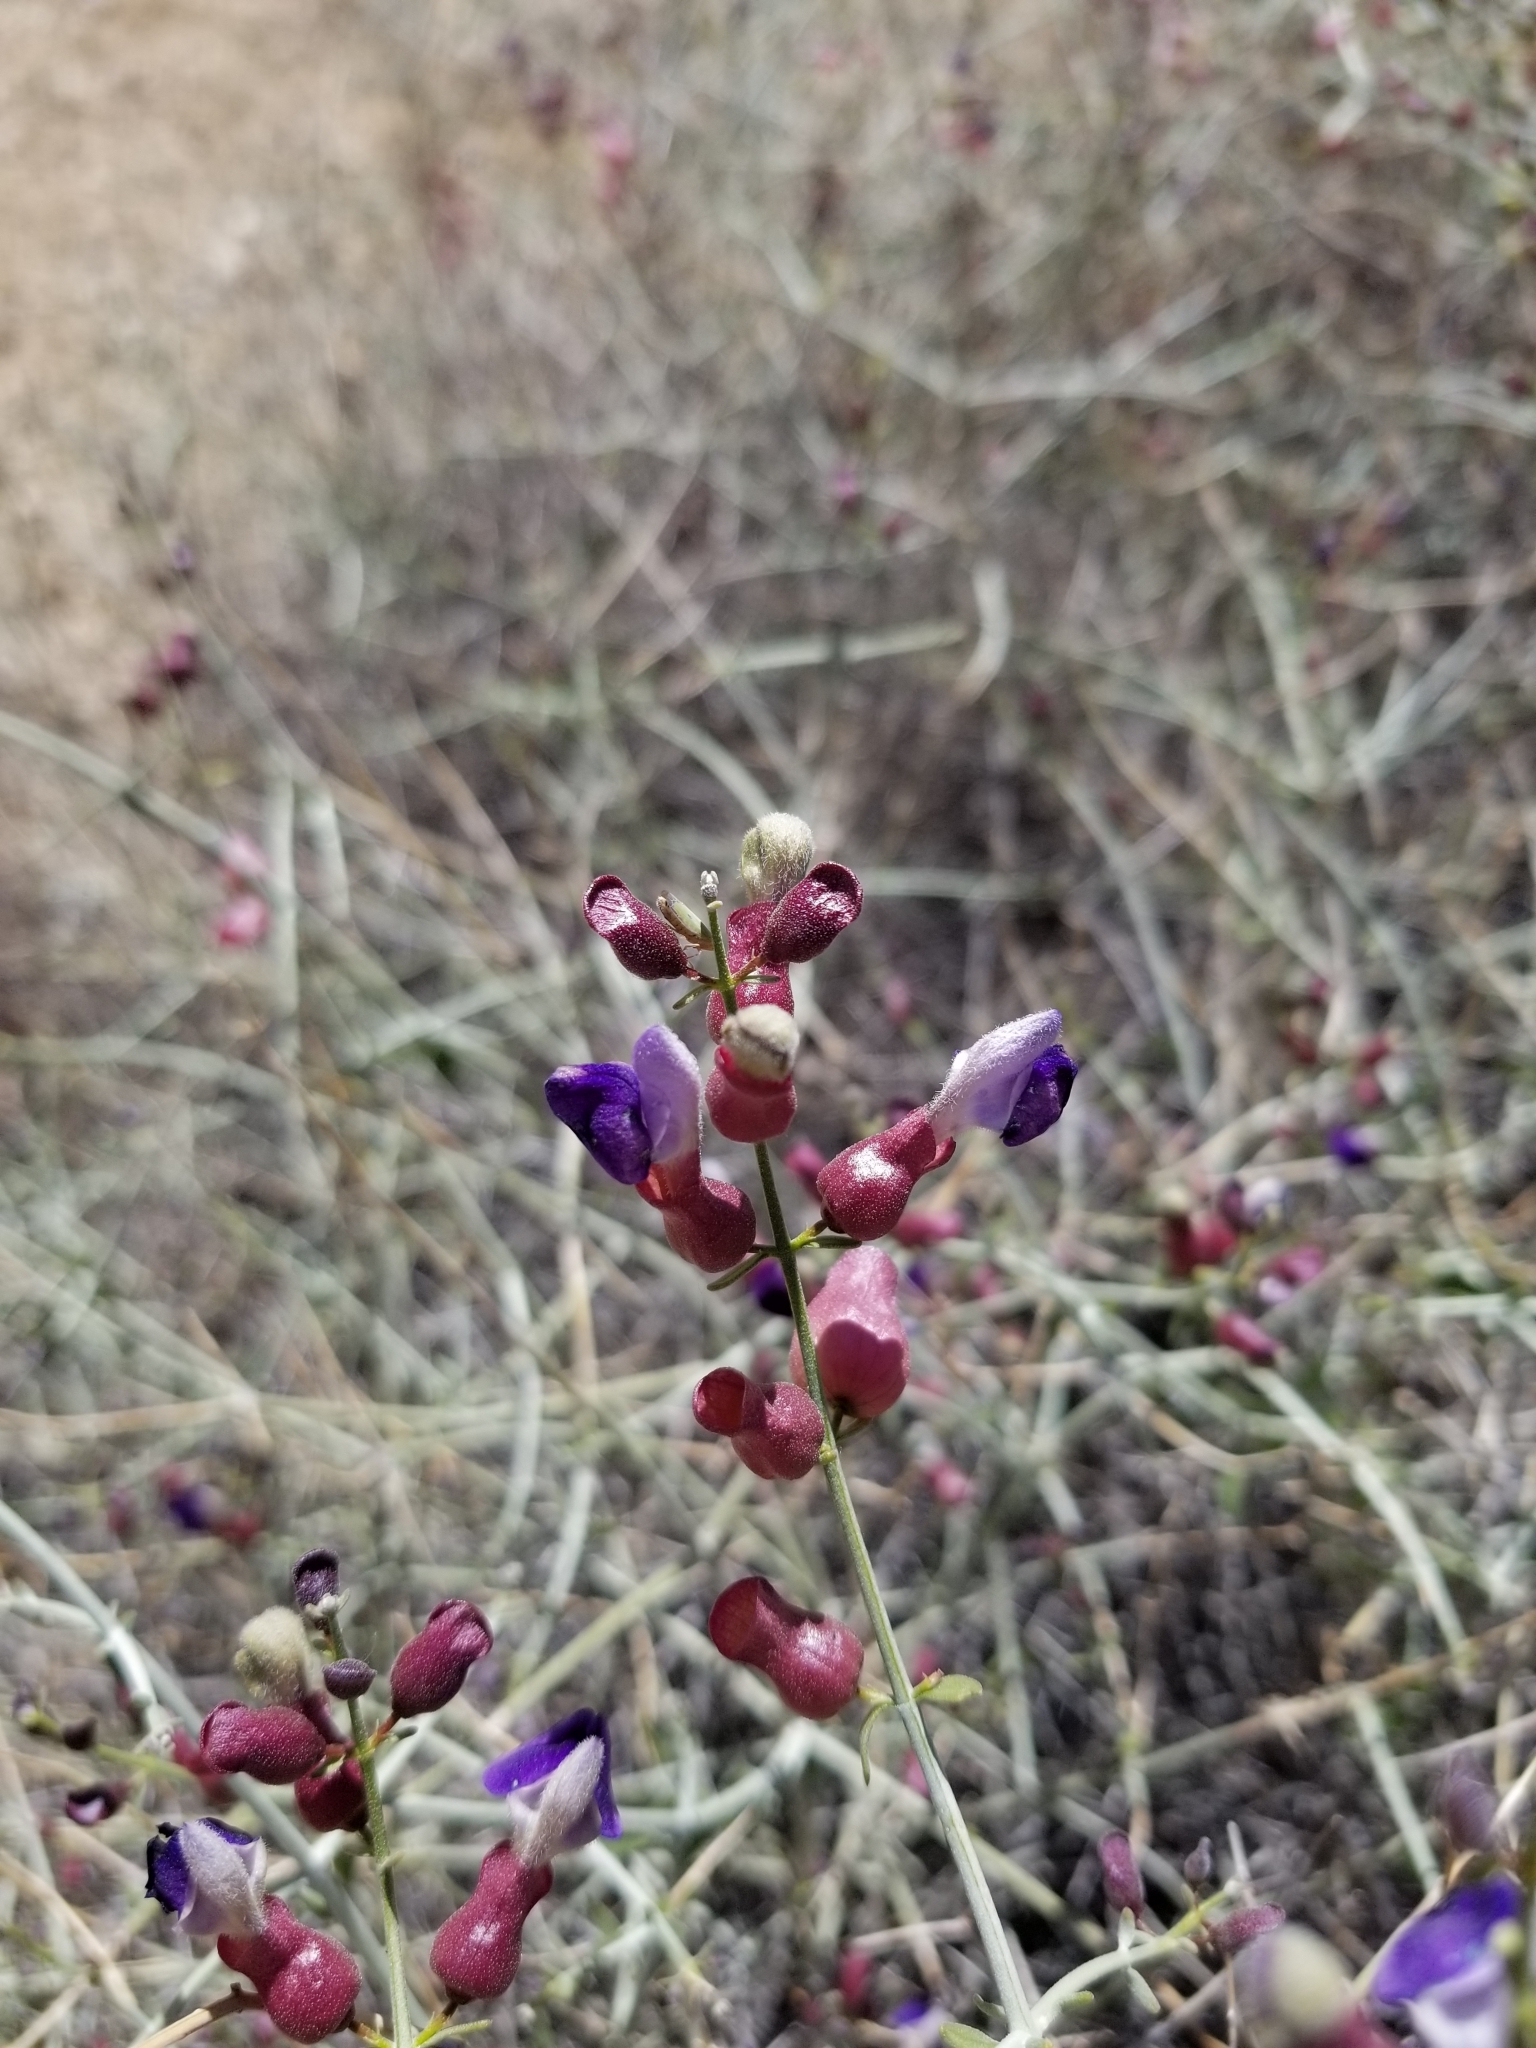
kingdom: Plantae
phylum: Tracheophyta
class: Magnoliopsida
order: Lamiales
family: Lamiaceae
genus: Scutellaria
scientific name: Scutellaria mexicana
